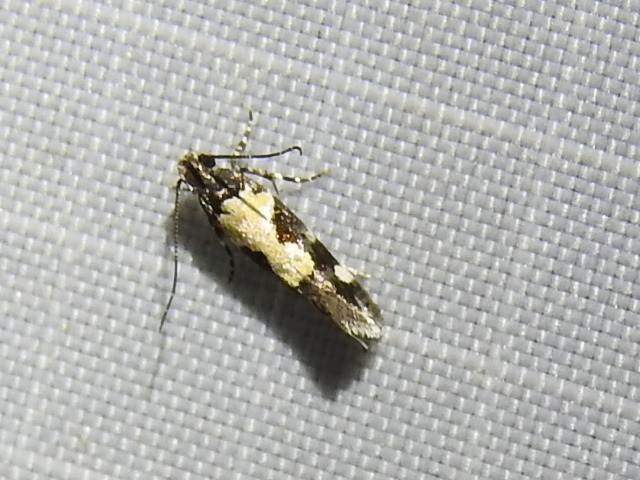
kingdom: Animalia
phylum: Arthropoda
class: Insecta
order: Lepidoptera
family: Gelechiidae
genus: Stegasta
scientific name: Stegasta bosqueella
